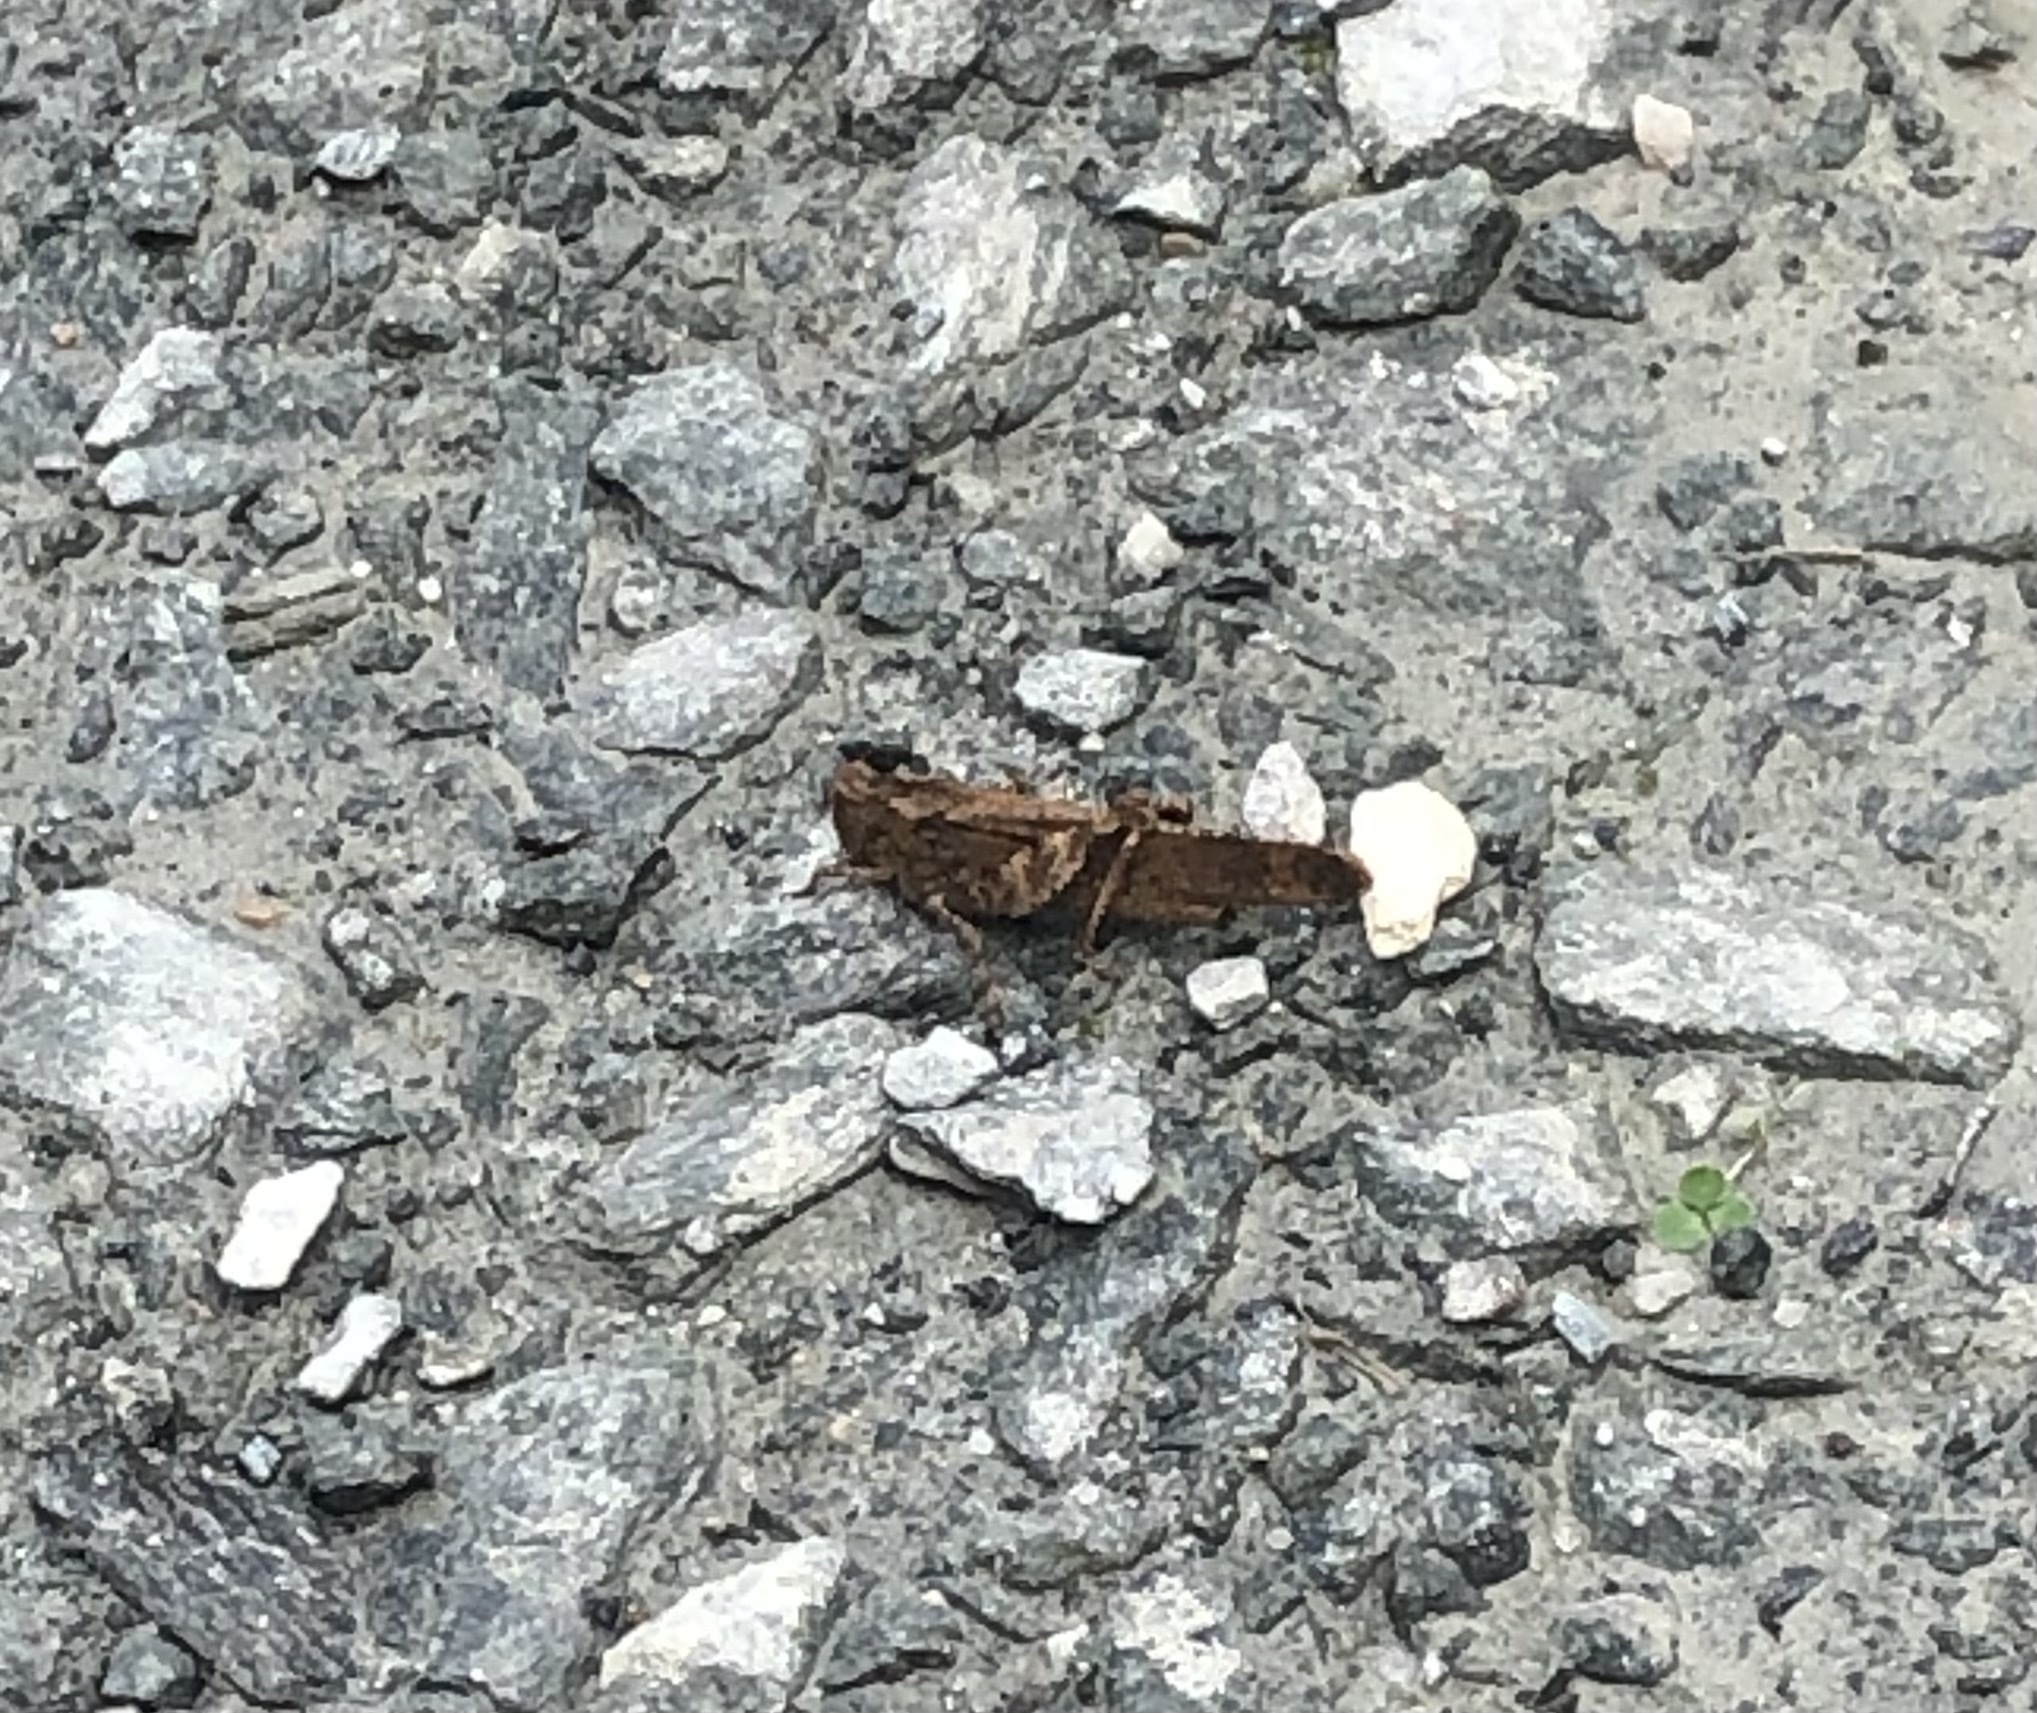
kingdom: Animalia
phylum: Arthropoda
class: Insecta
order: Orthoptera
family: Acrididae
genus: Dissosteira
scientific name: Dissosteira carolina
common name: Carolina grasshopper
